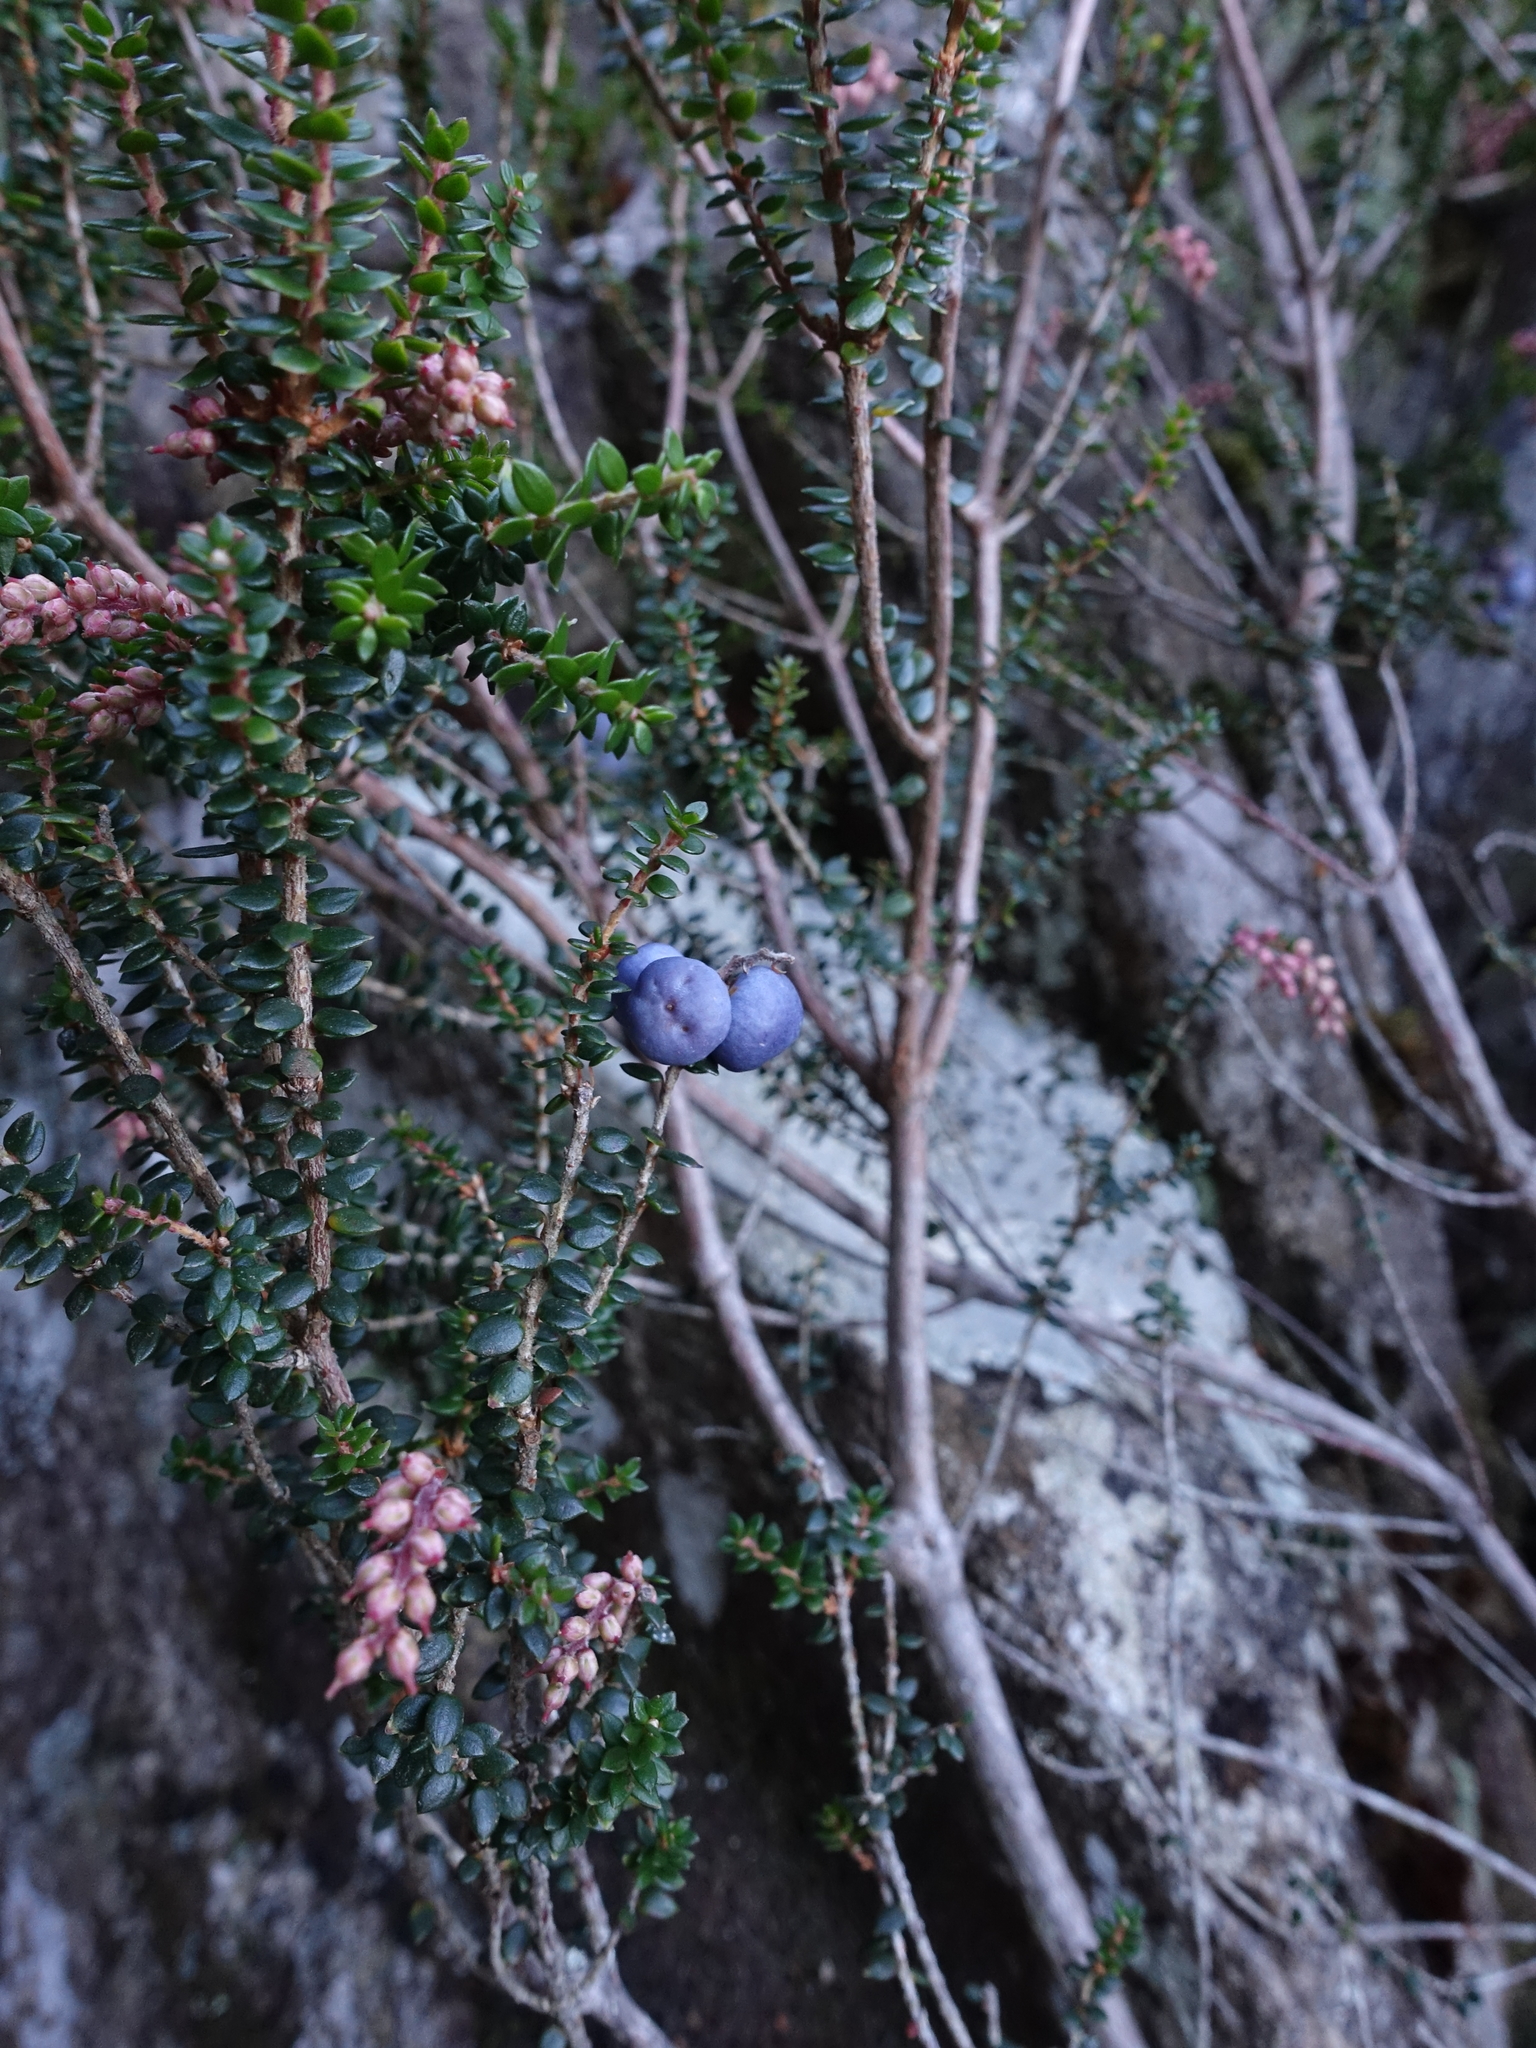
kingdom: Plantae
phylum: Tracheophyta
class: Magnoliopsida
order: Ericales
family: Ericaceae
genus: Trochocarpa
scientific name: Trochocarpa thymifolia
